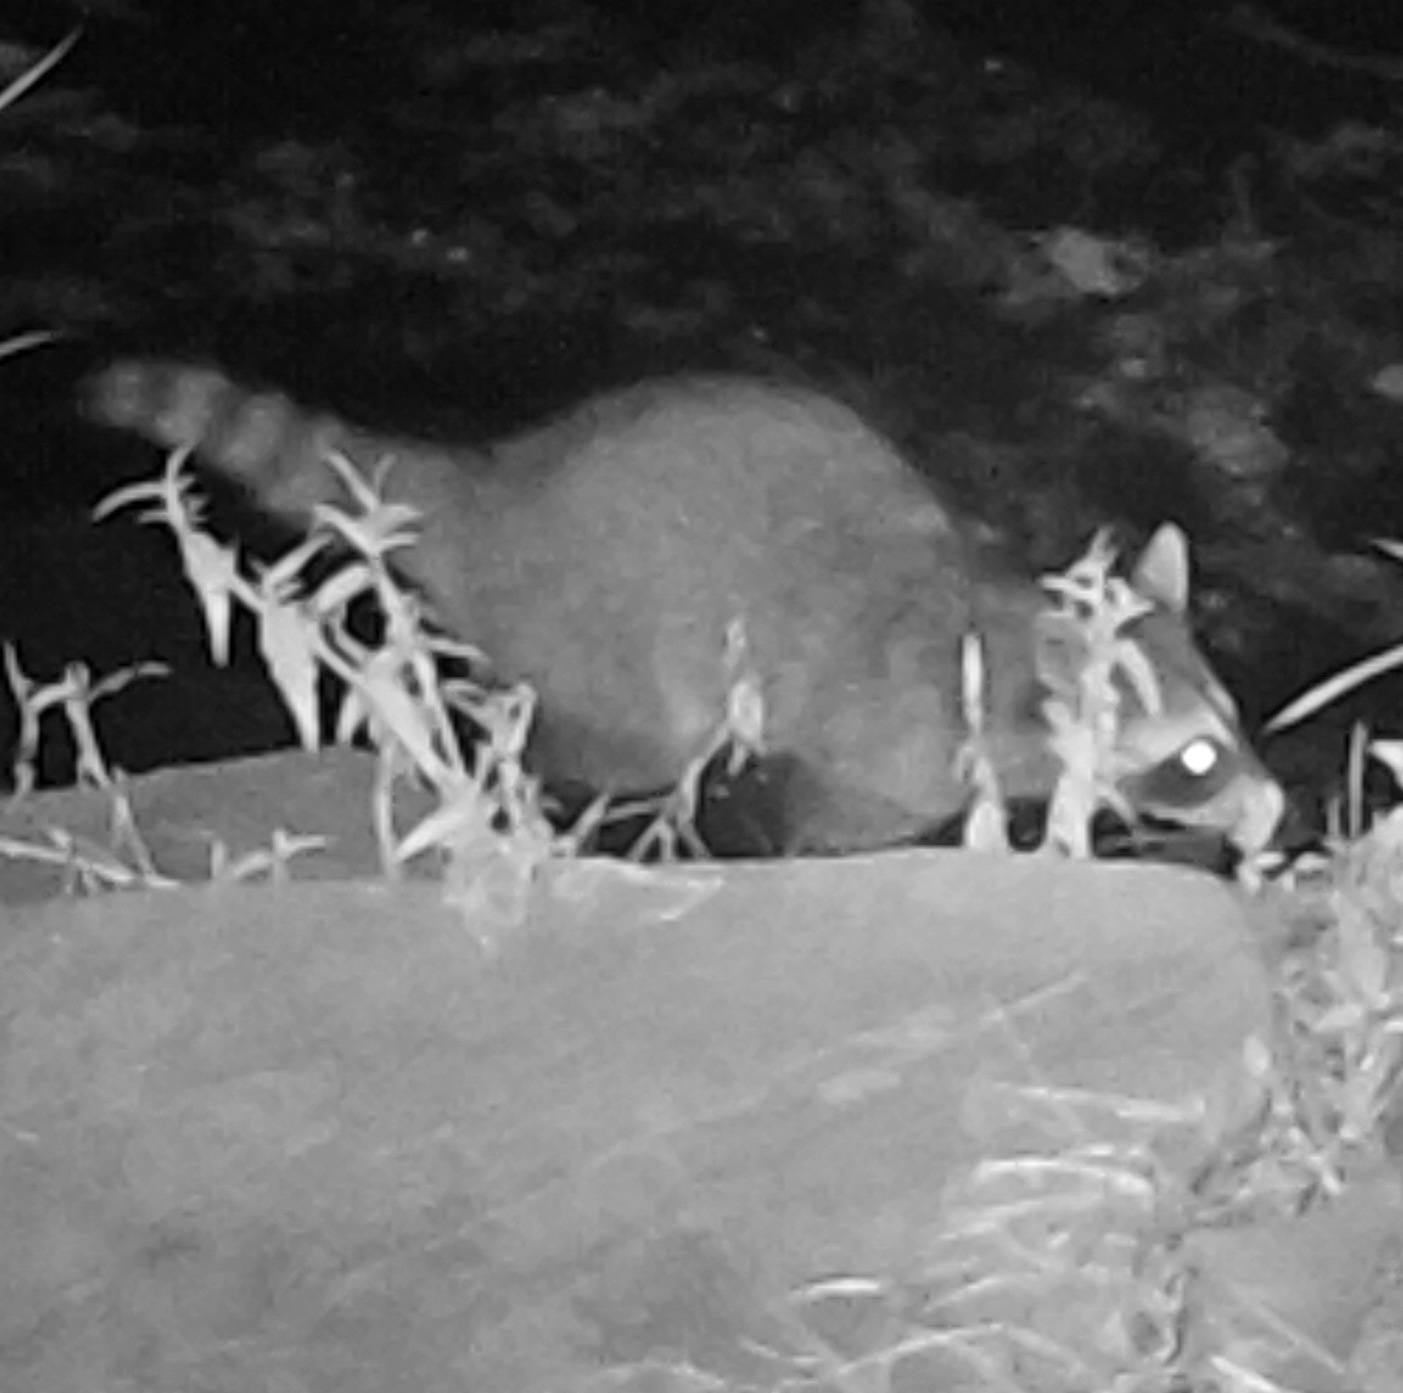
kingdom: Animalia
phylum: Chordata
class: Mammalia
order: Carnivora
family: Procyonidae
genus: Procyon
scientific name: Procyon lotor
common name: Raccoon
